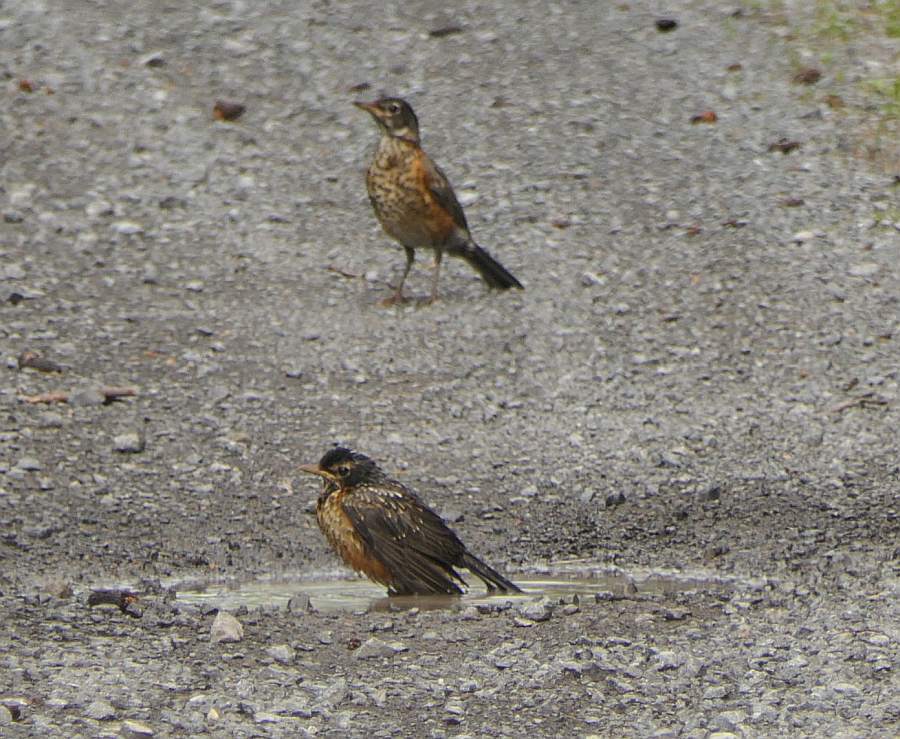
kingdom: Animalia
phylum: Chordata
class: Aves
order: Passeriformes
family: Turdidae
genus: Turdus
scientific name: Turdus migratorius
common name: American robin
